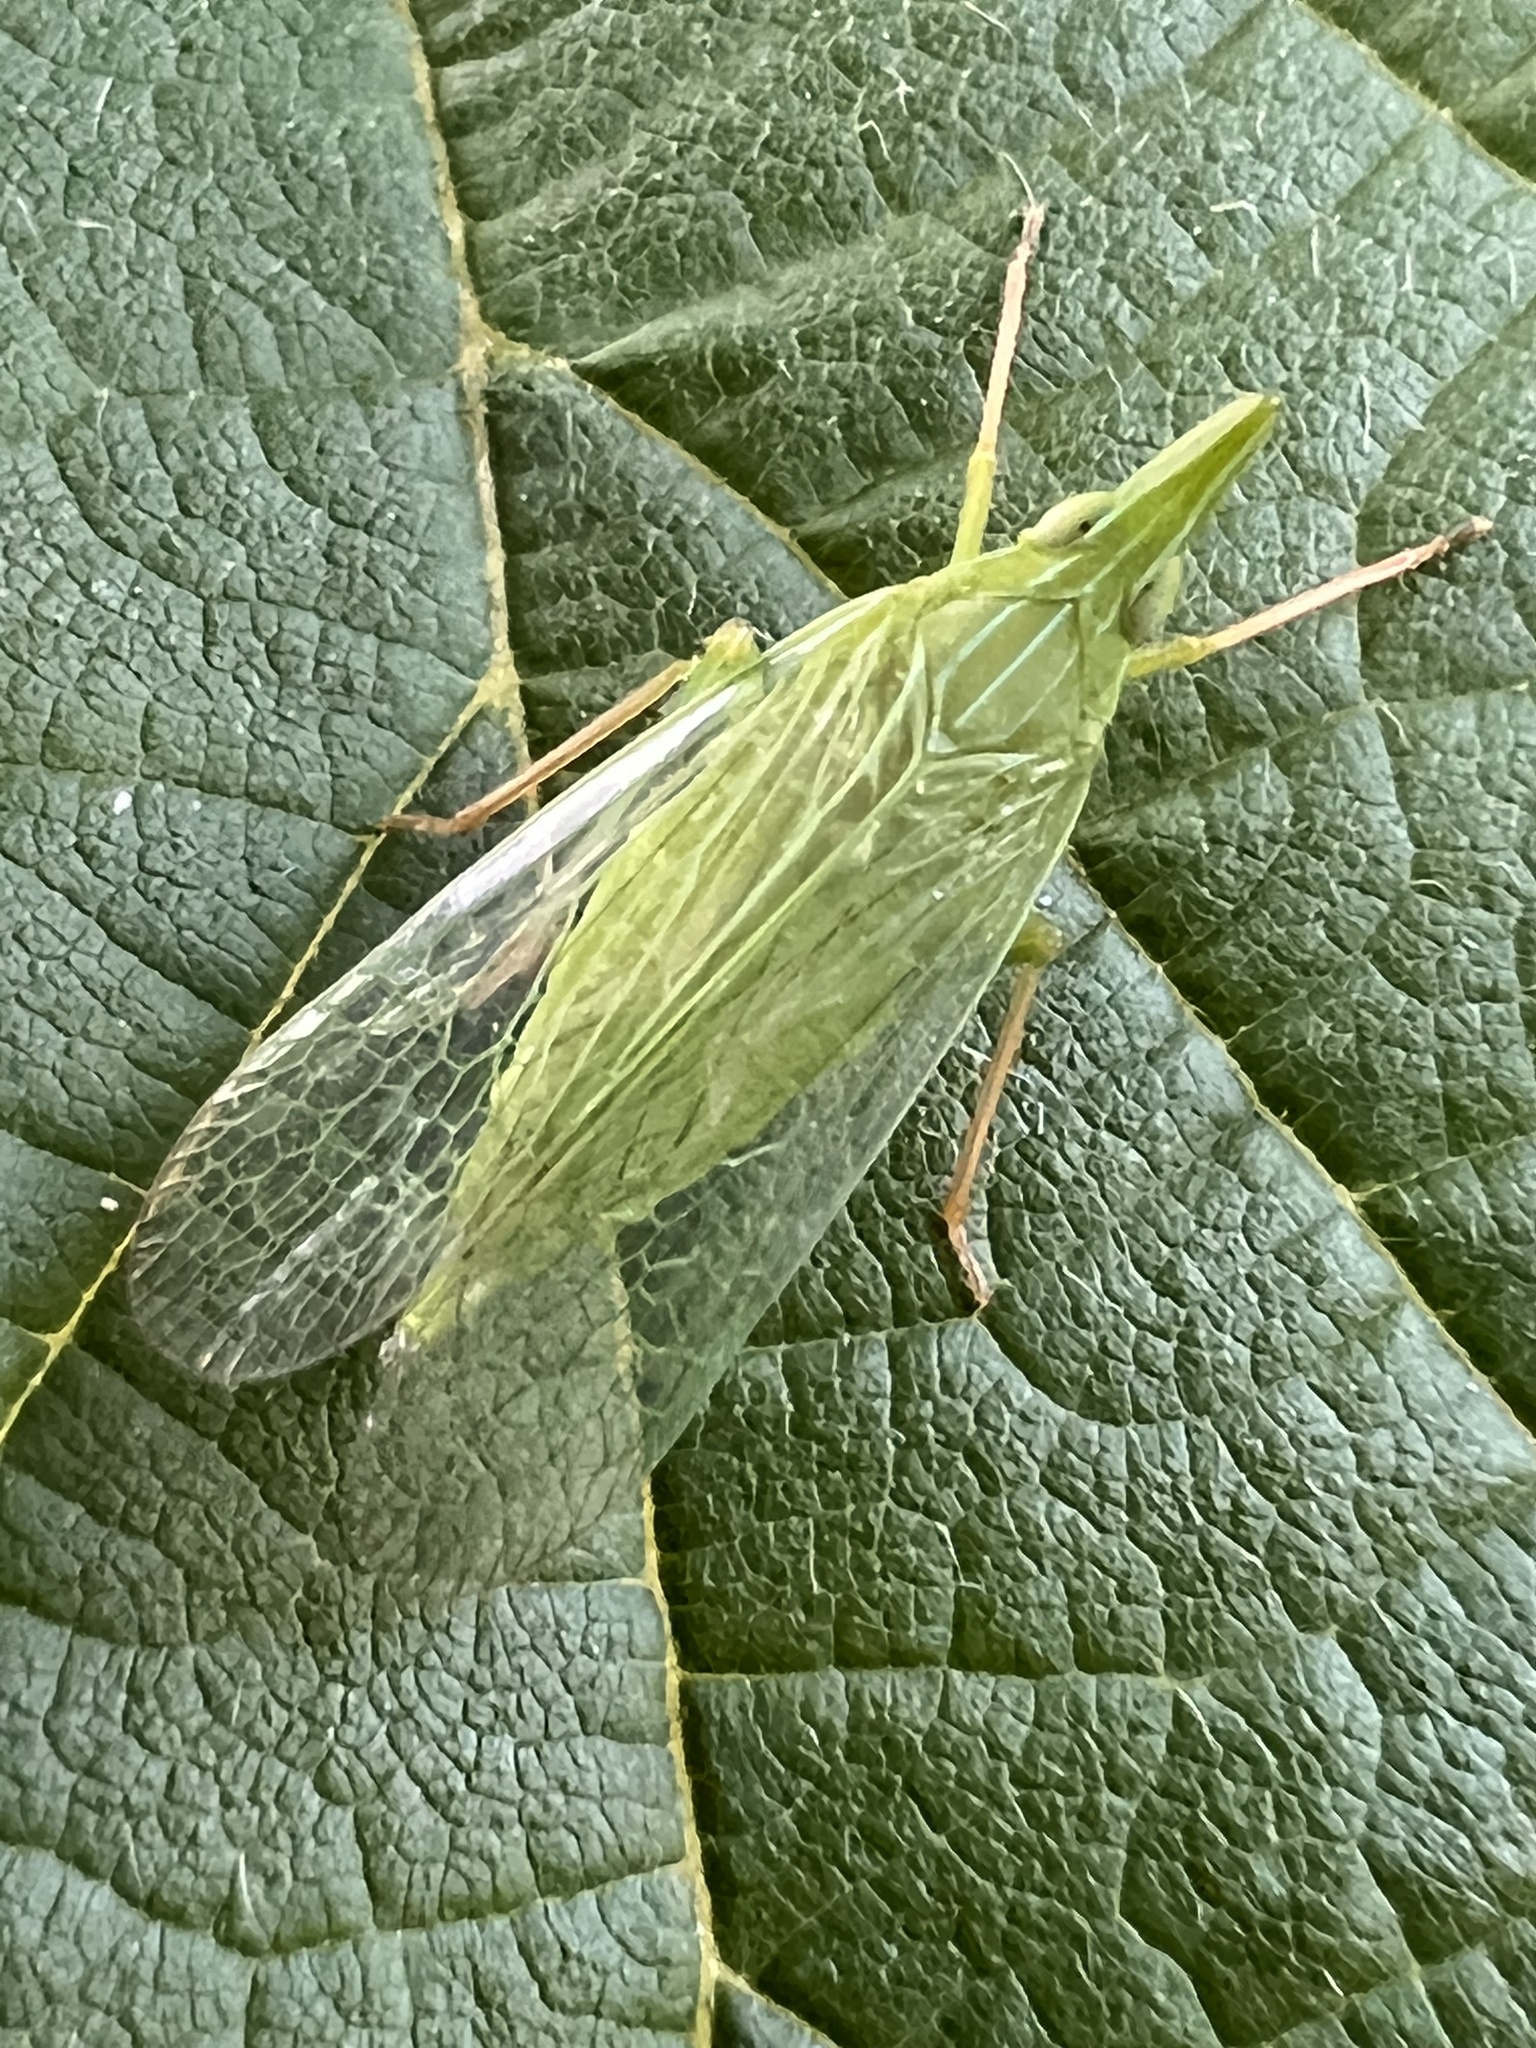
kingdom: Animalia
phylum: Arthropoda
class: Insecta
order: Hemiptera
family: Dictyopharidae
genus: Rhynchomitra
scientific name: Rhynchomitra microrhina
